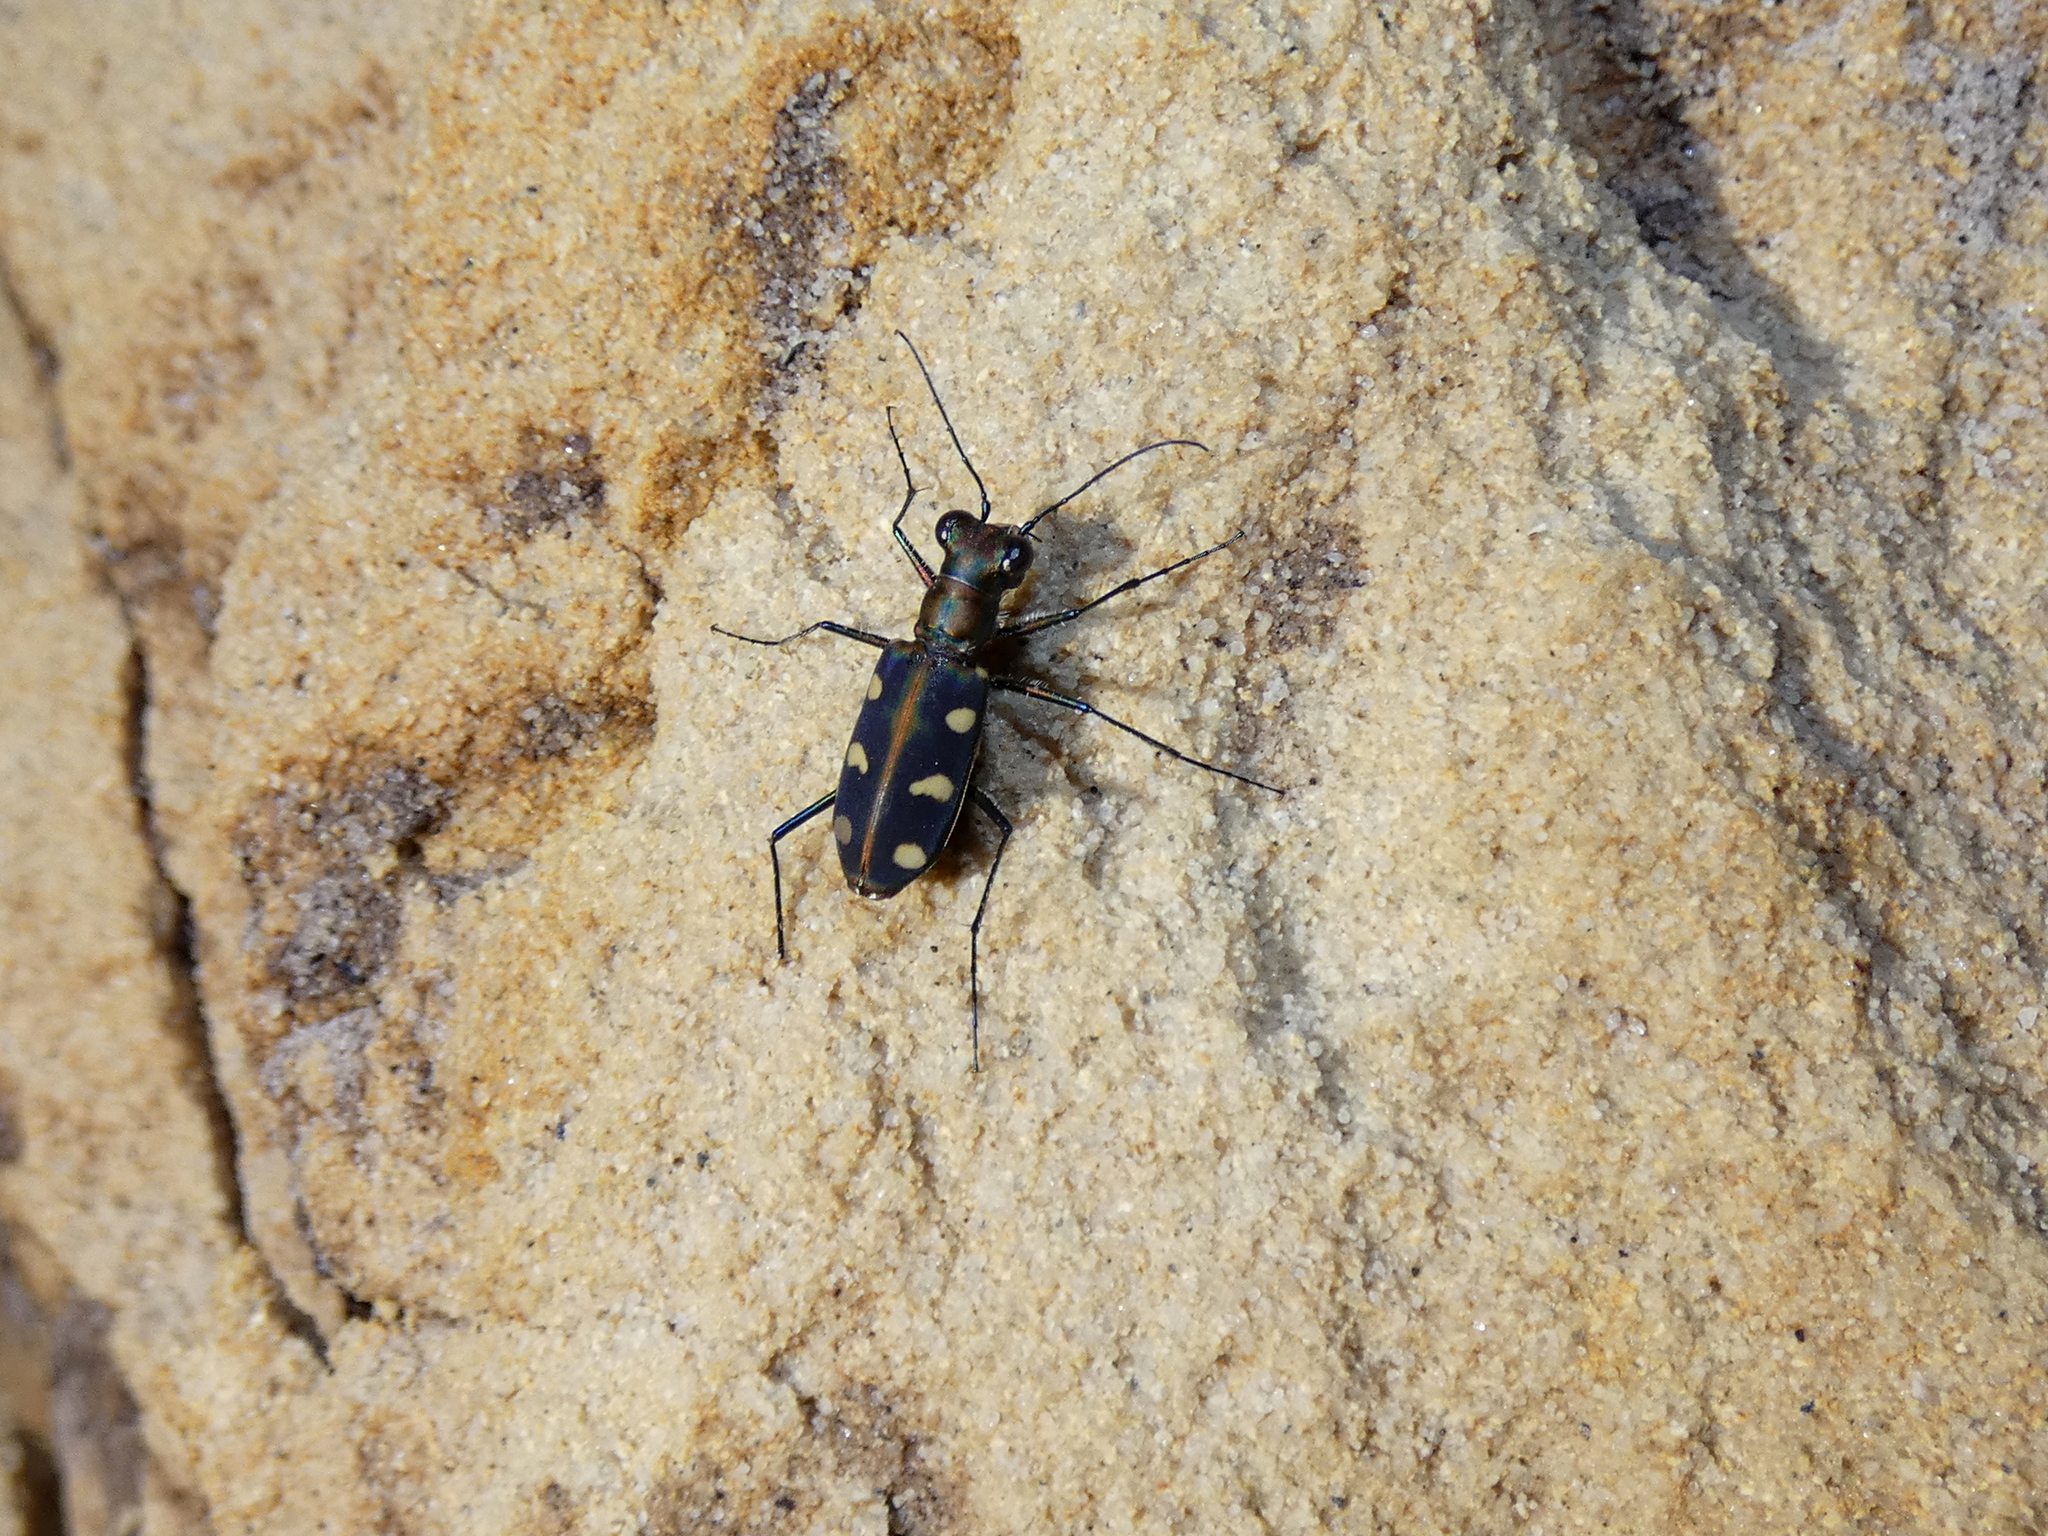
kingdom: Animalia
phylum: Arthropoda
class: Insecta
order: Coleoptera
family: Carabidae
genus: Cicindela
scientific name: Cicindela aurulenta
